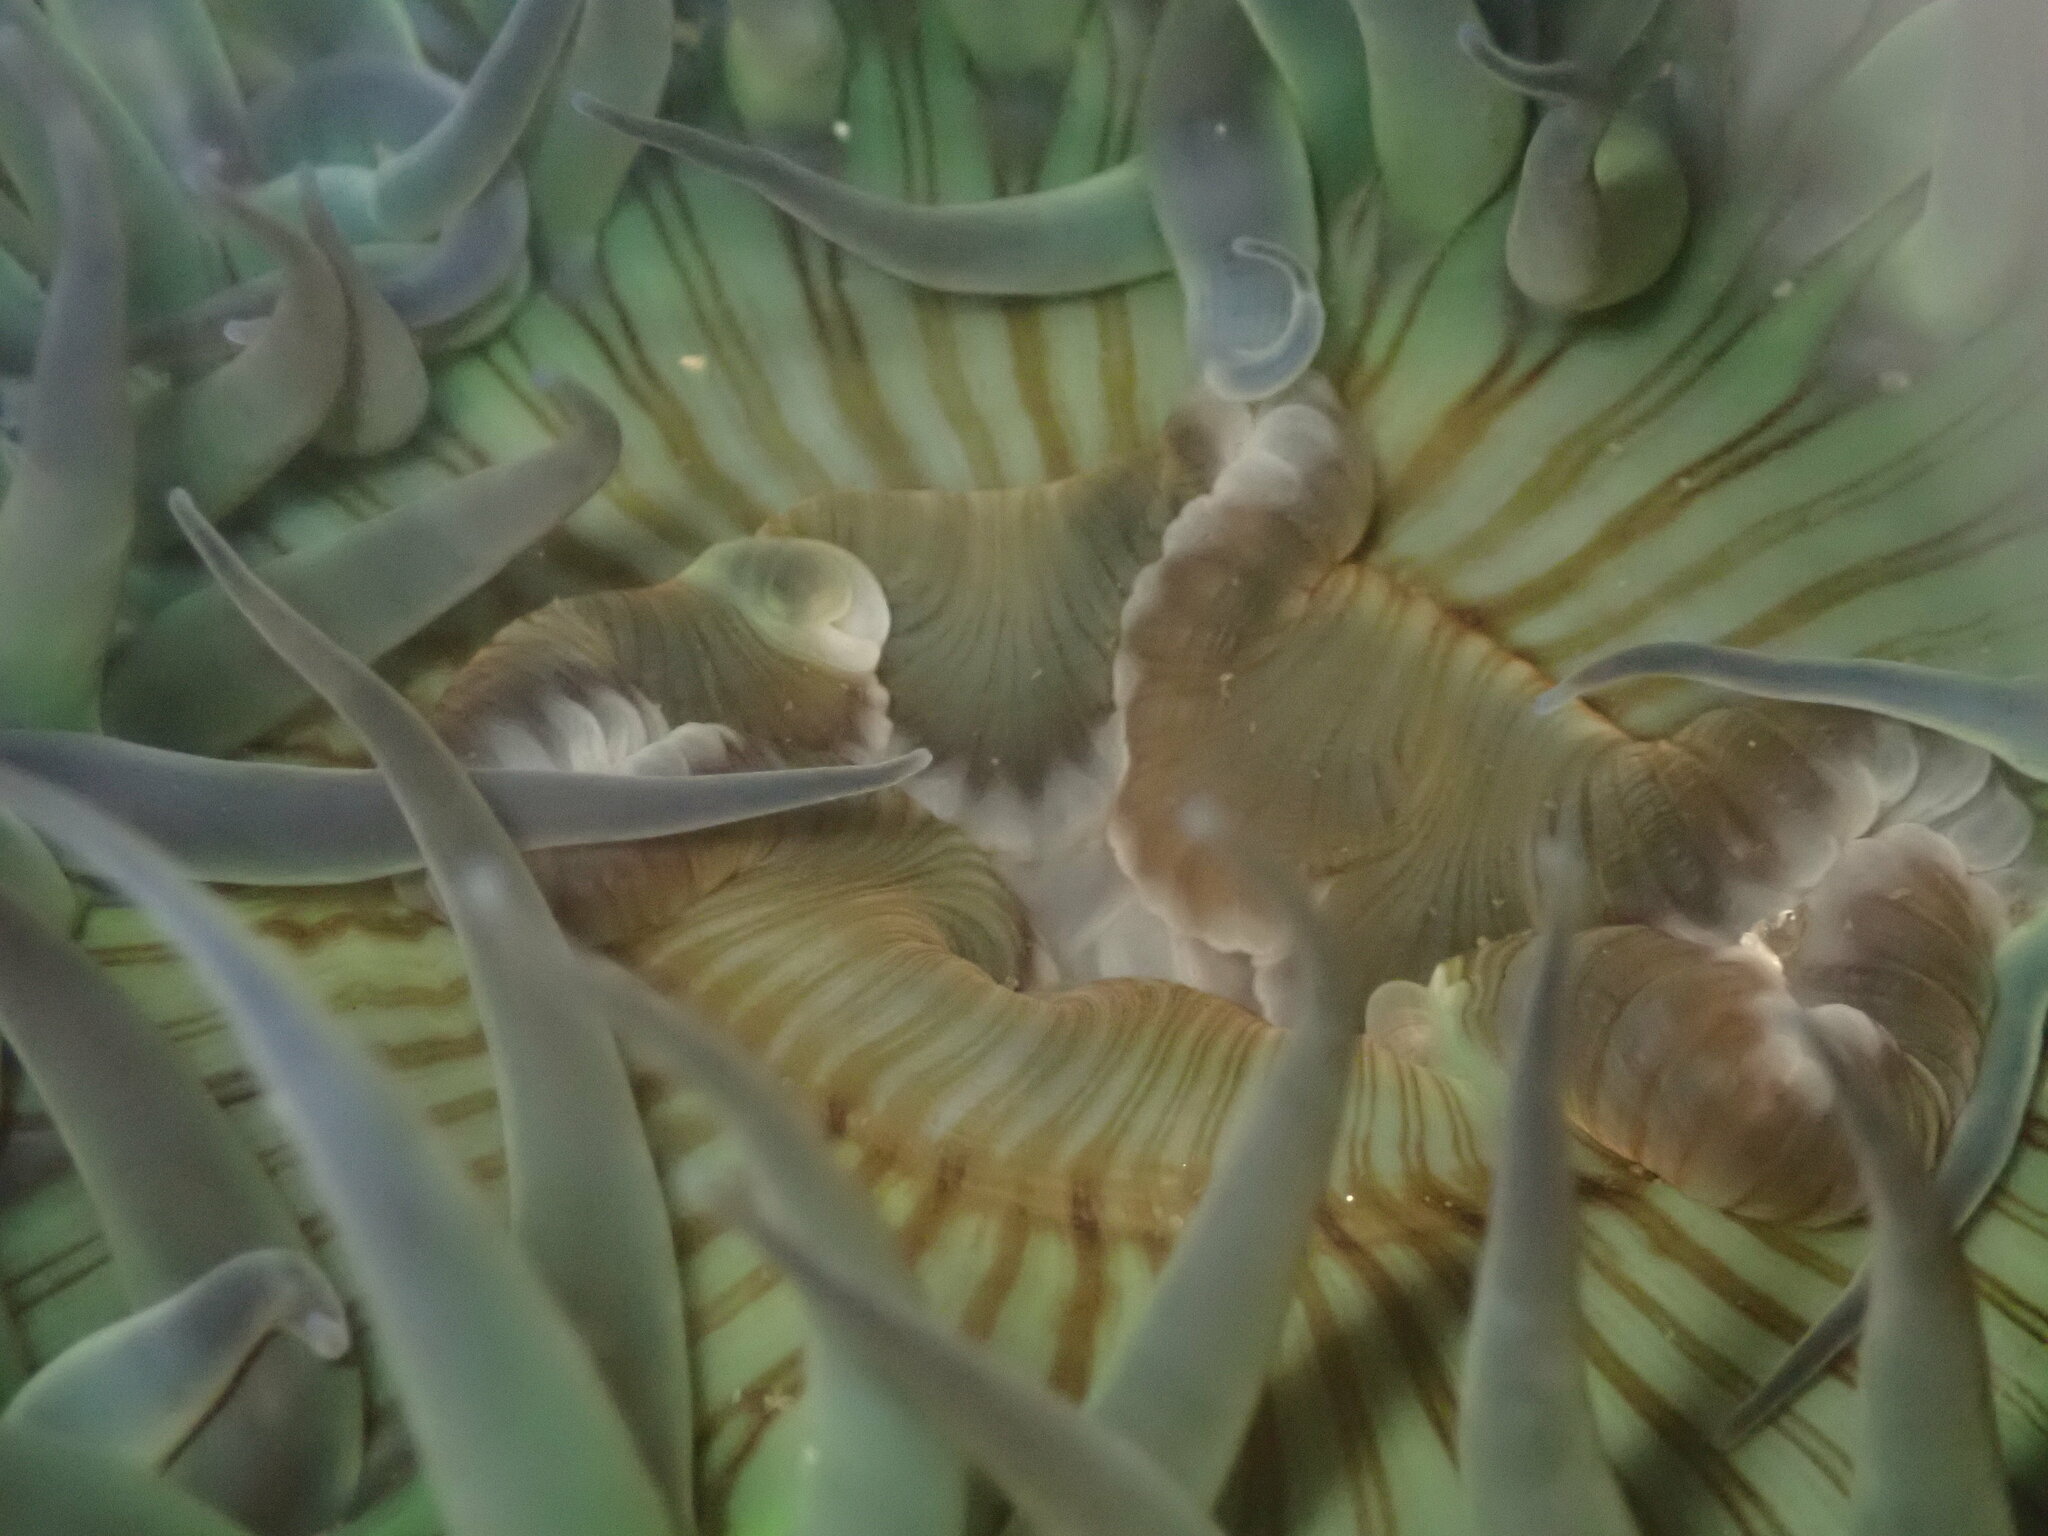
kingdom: Animalia
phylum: Cnidaria
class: Anthozoa
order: Actiniaria
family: Actiniidae
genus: Anthopleura
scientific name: Anthopleura sola
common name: Sun anemone
